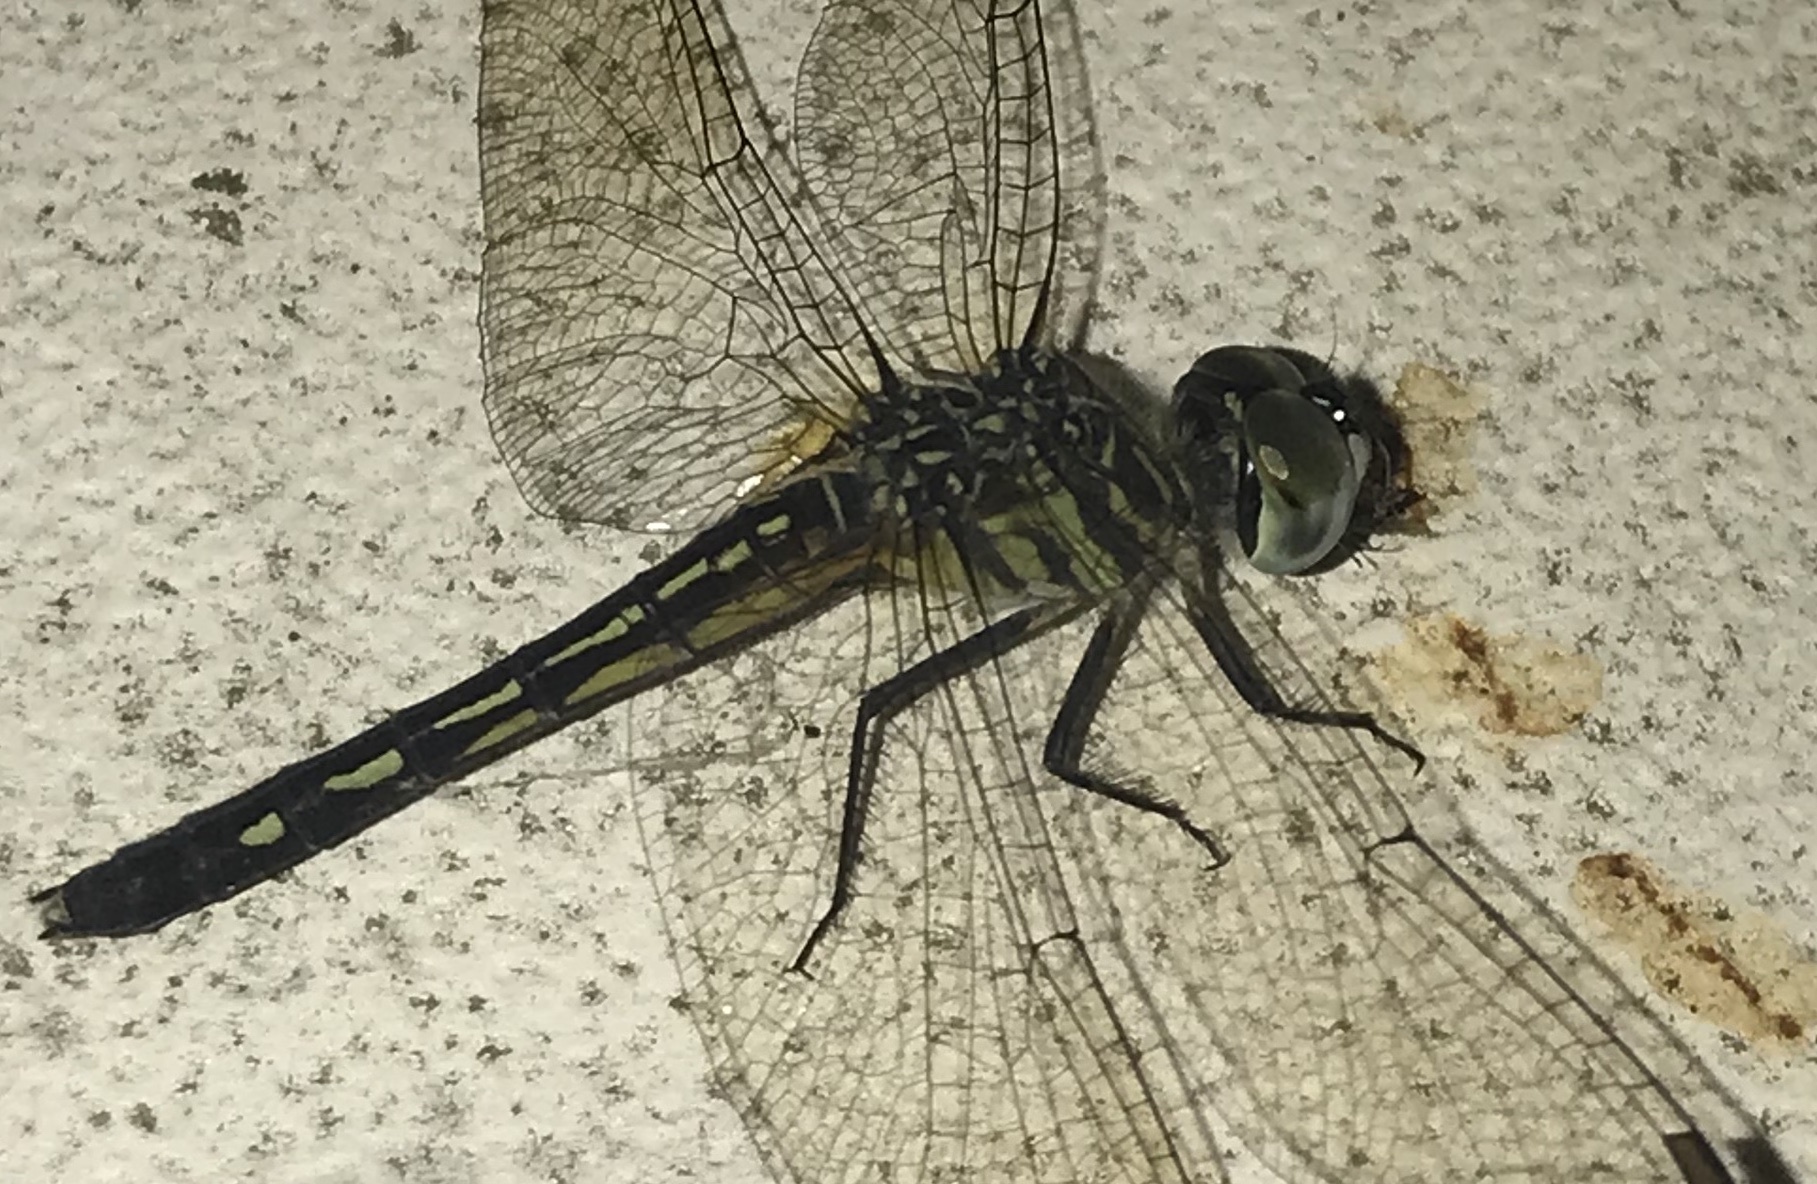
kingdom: Animalia
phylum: Arthropoda
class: Insecta
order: Odonata
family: Libellulidae
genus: Pachydiplax
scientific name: Pachydiplax longipennis
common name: Blue dasher
